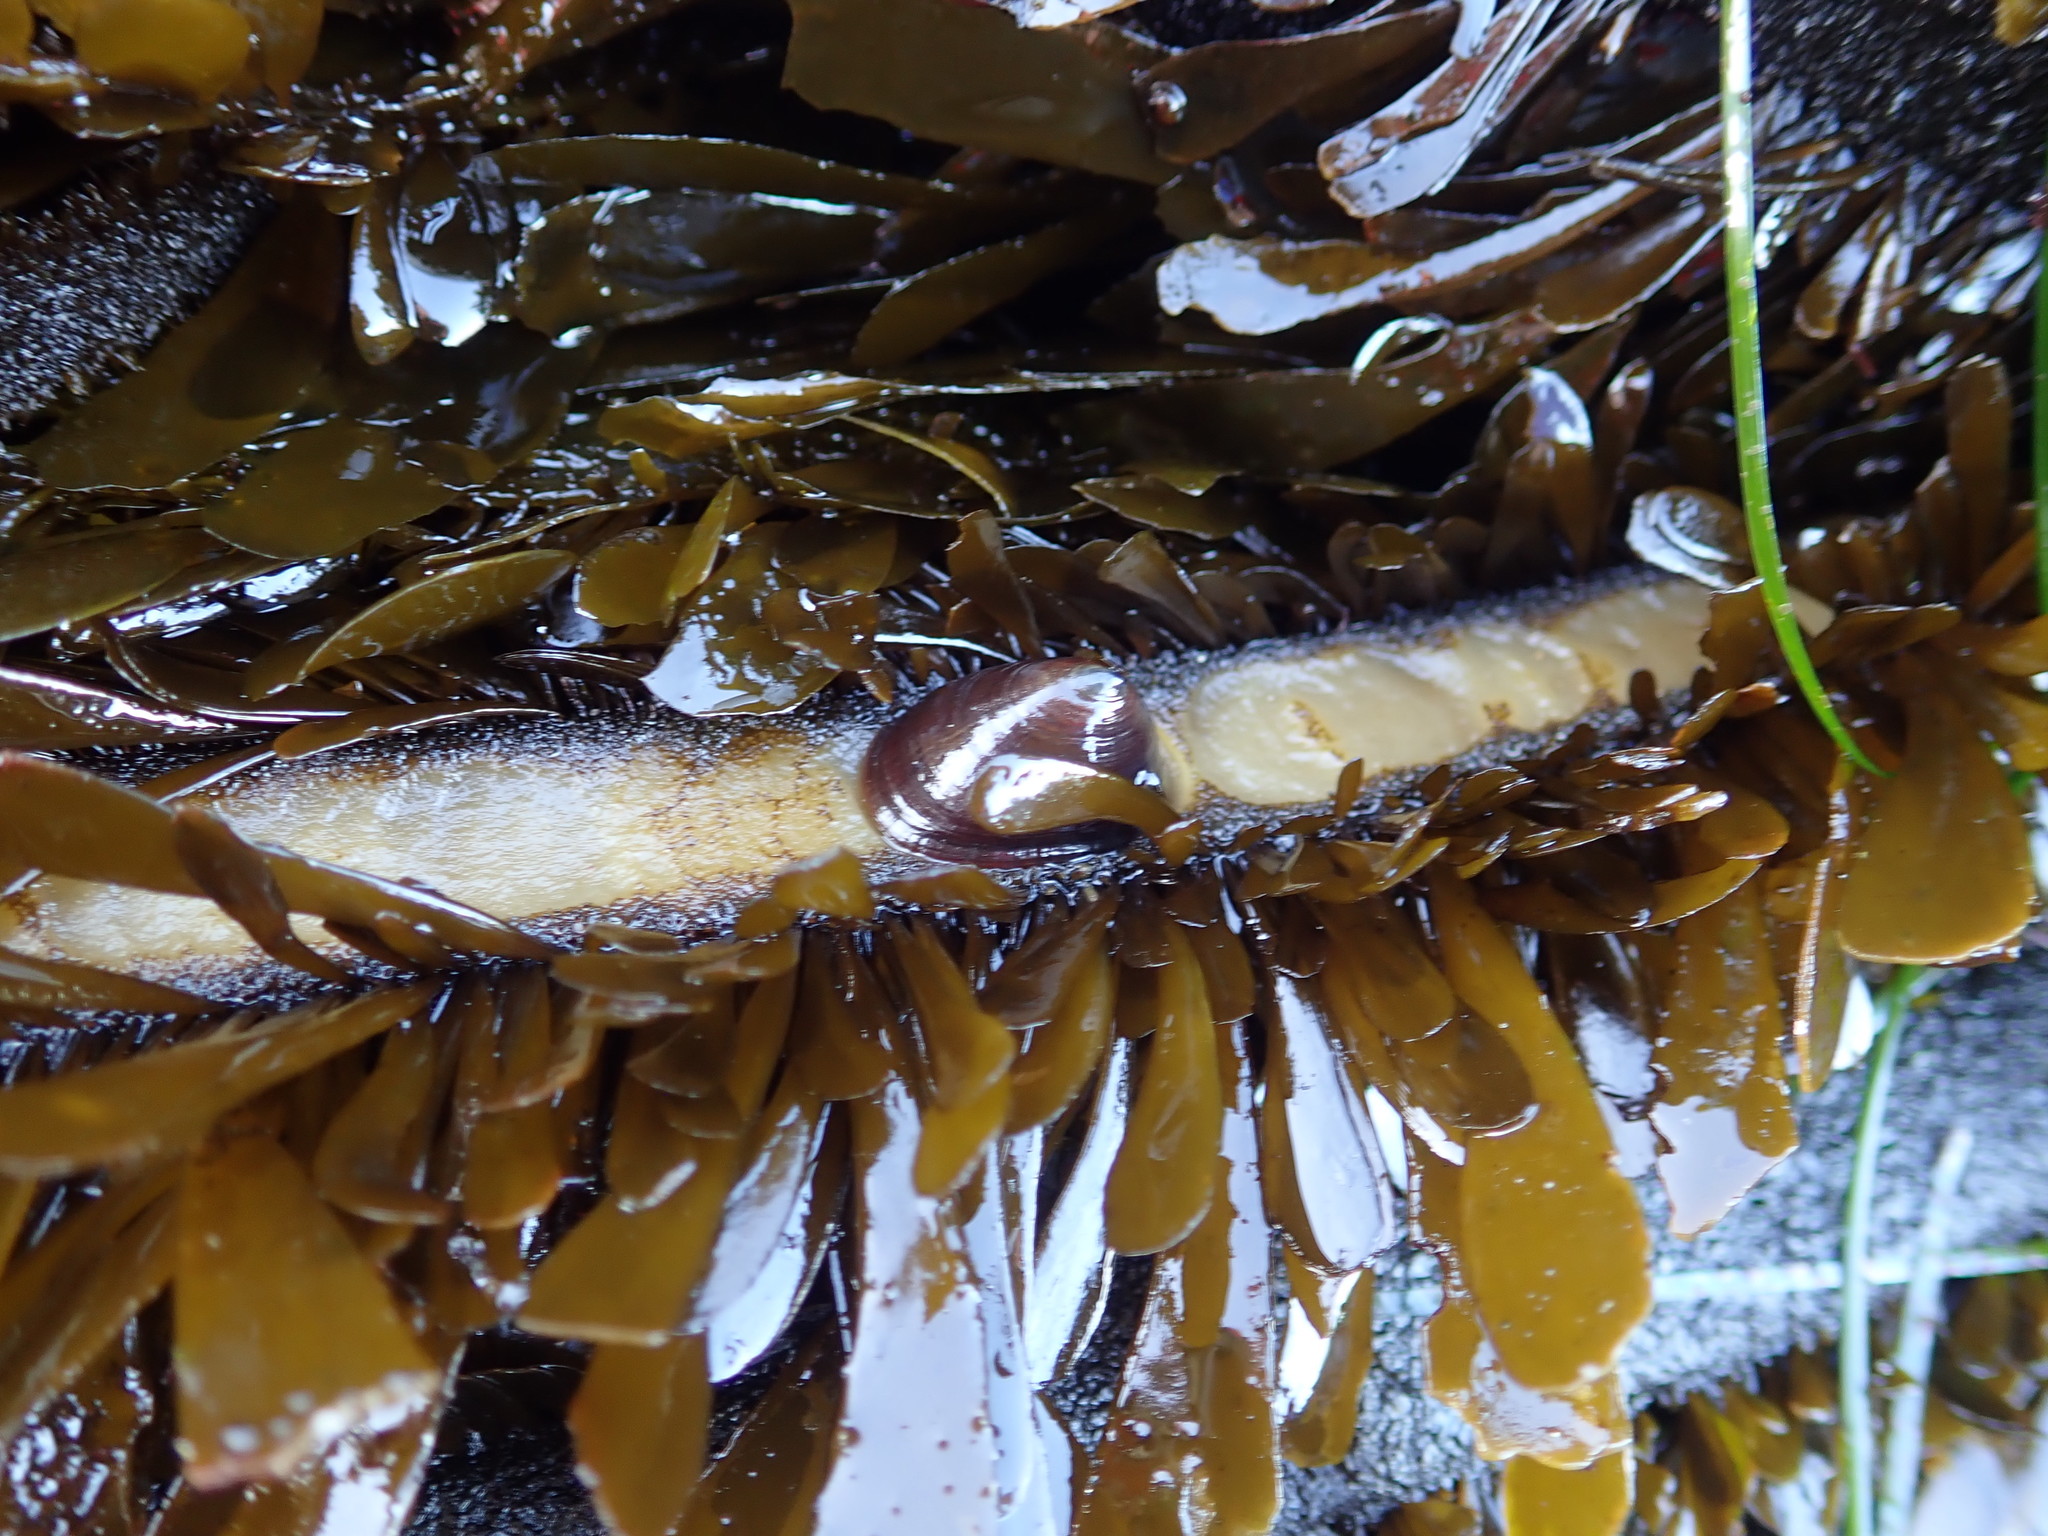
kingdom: Animalia
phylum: Mollusca
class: Gastropoda
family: Lottiidae
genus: Discurria
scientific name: Discurria insessa
